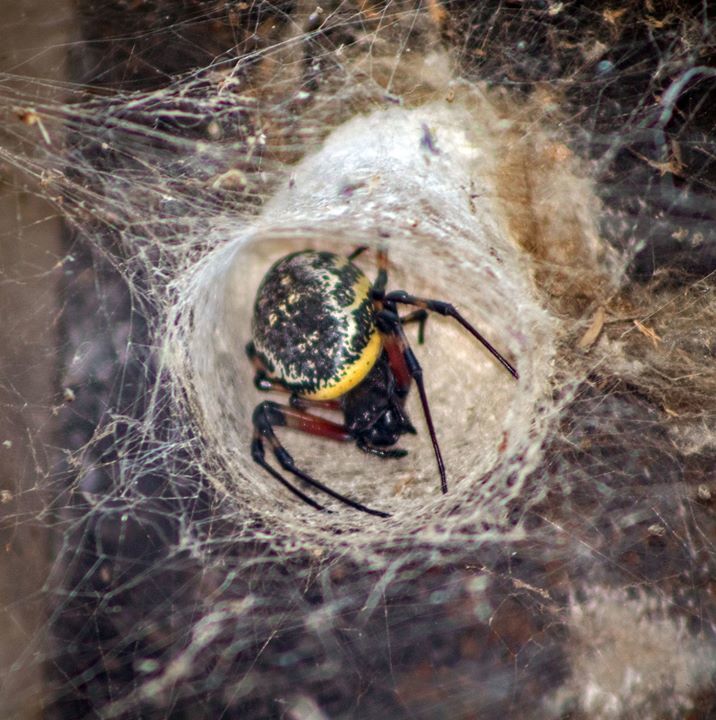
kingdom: Animalia
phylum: Arthropoda
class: Arachnida
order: Araneae
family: Araneidae
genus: Nephilingis
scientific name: Nephilingis cruentata
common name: African hermit spider
